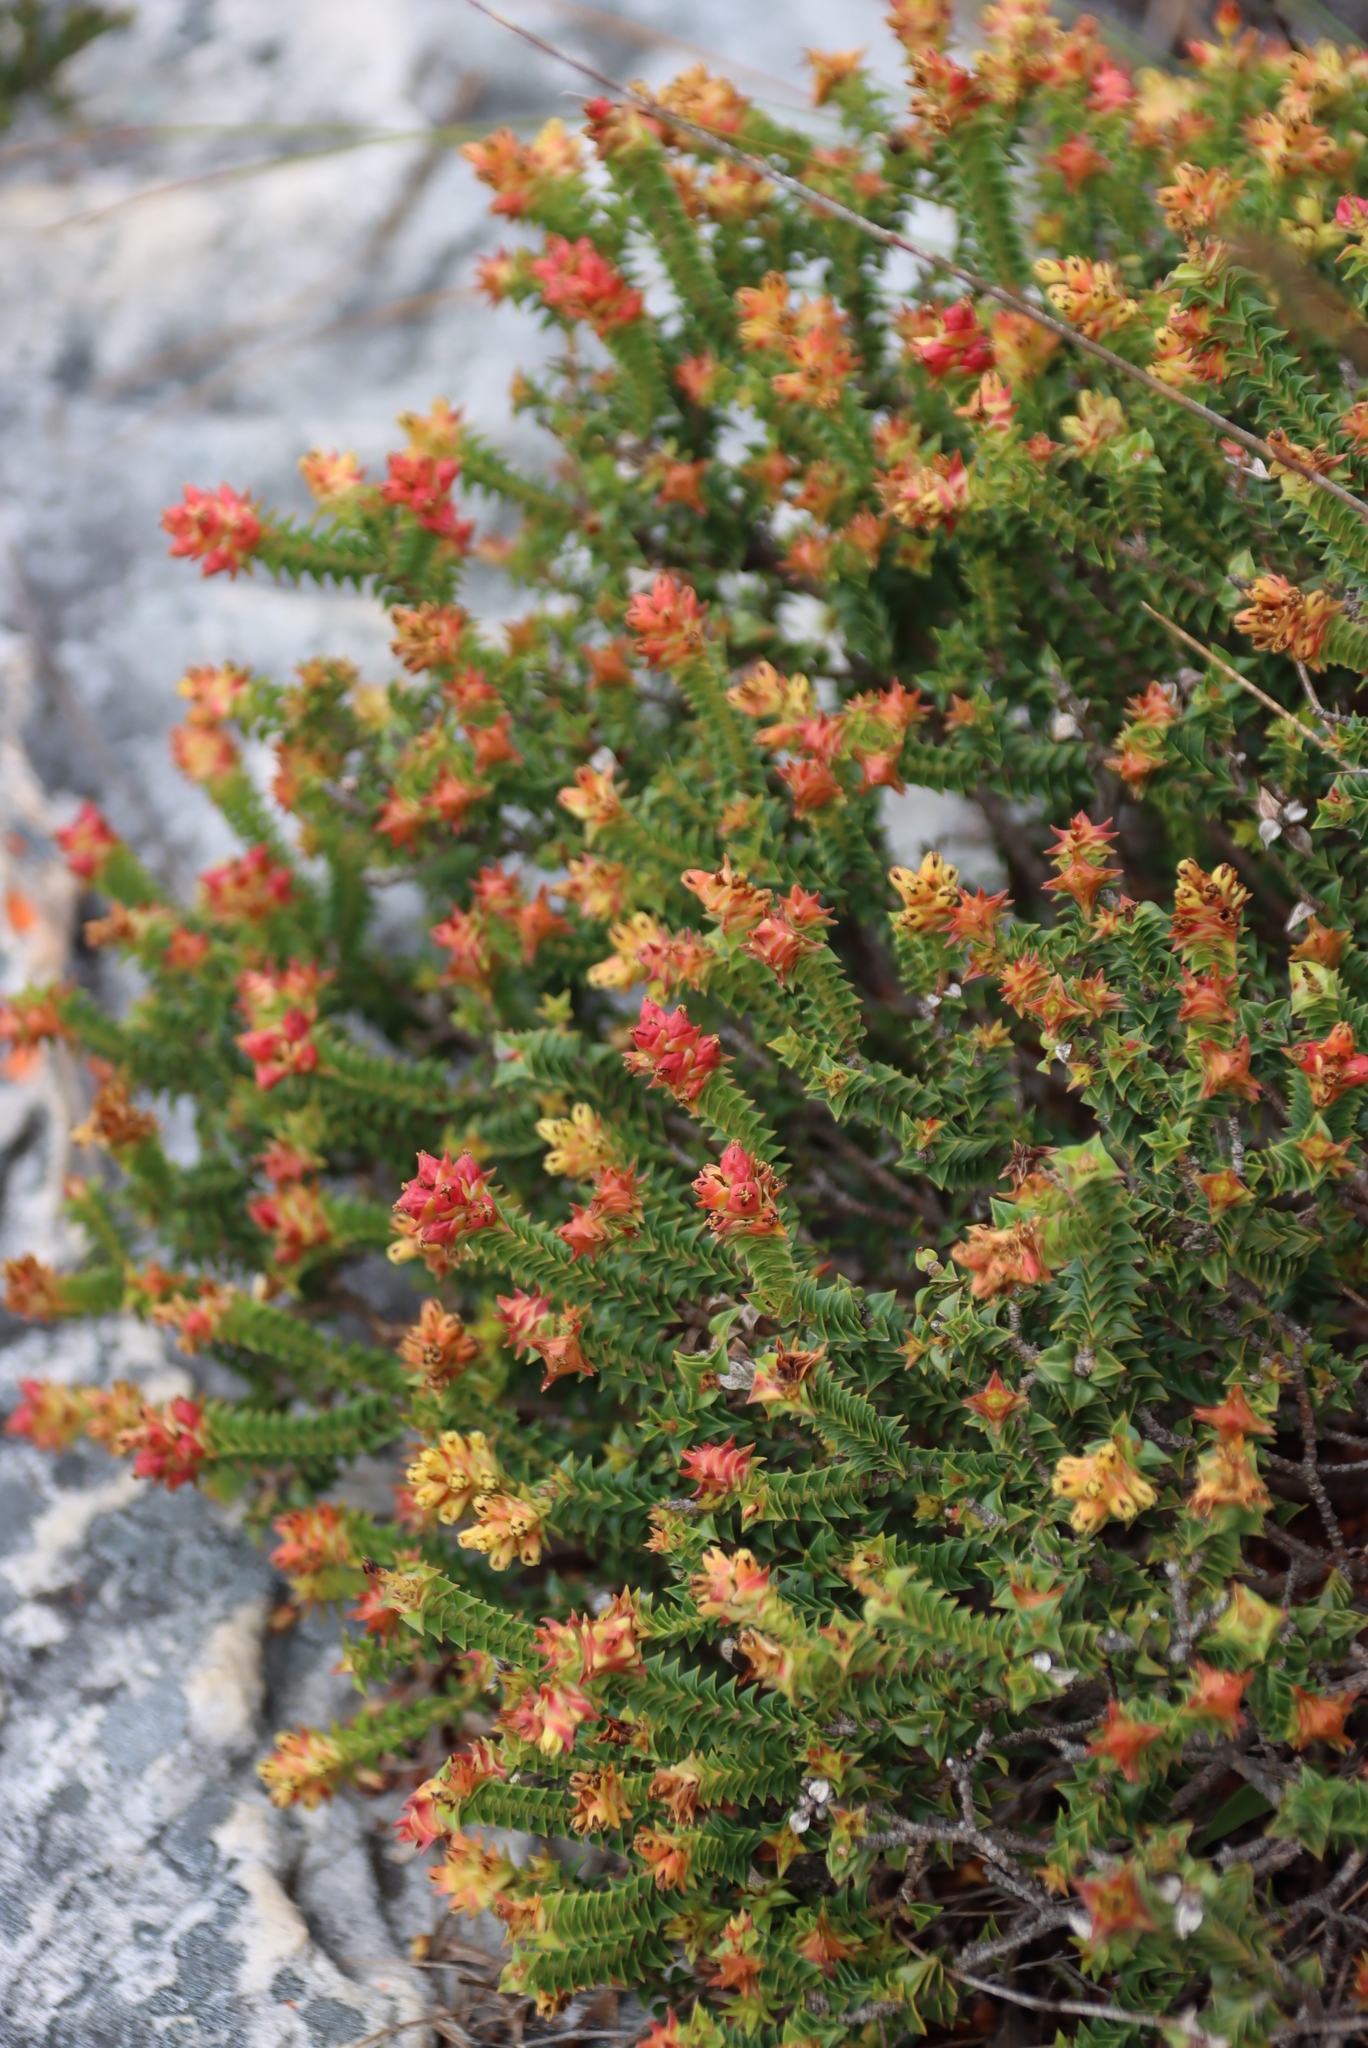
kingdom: Plantae
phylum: Tracheophyta
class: Magnoliopsida
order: Myrtales
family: Penaeaceae
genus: Penaea
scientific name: Penaea mucronata
